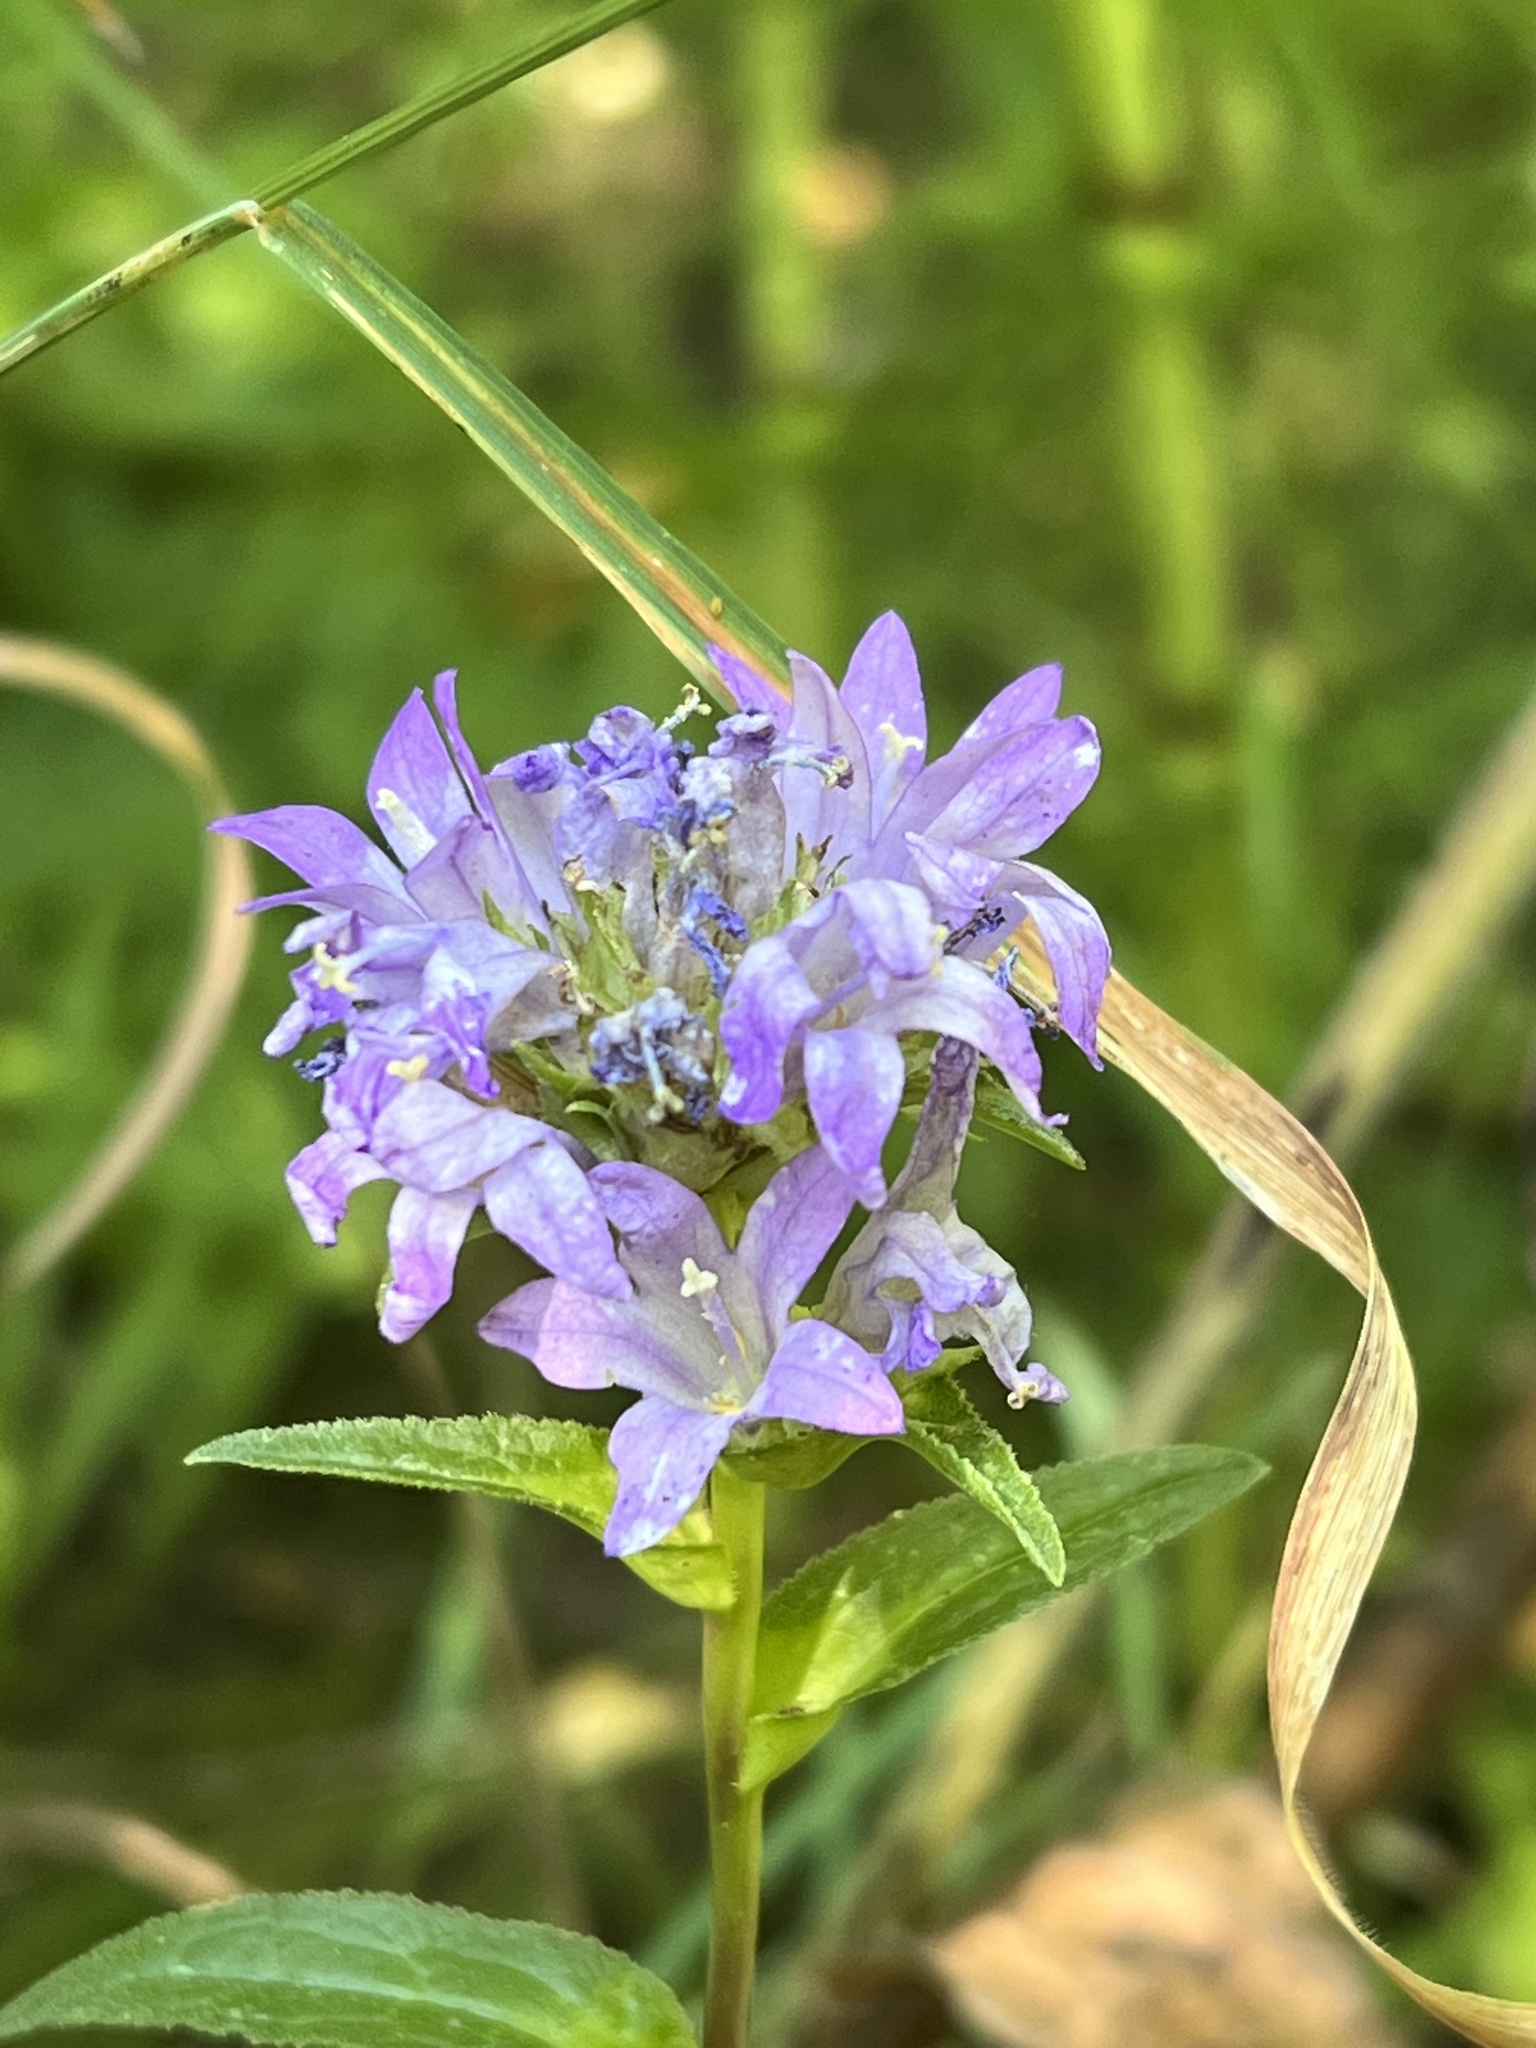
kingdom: Plantae
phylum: Tracheophyta
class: Magnoliopsida
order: Asterales
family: Campanulaceae
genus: Campanula
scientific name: Campanula glomerata
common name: Clustered bellflower
